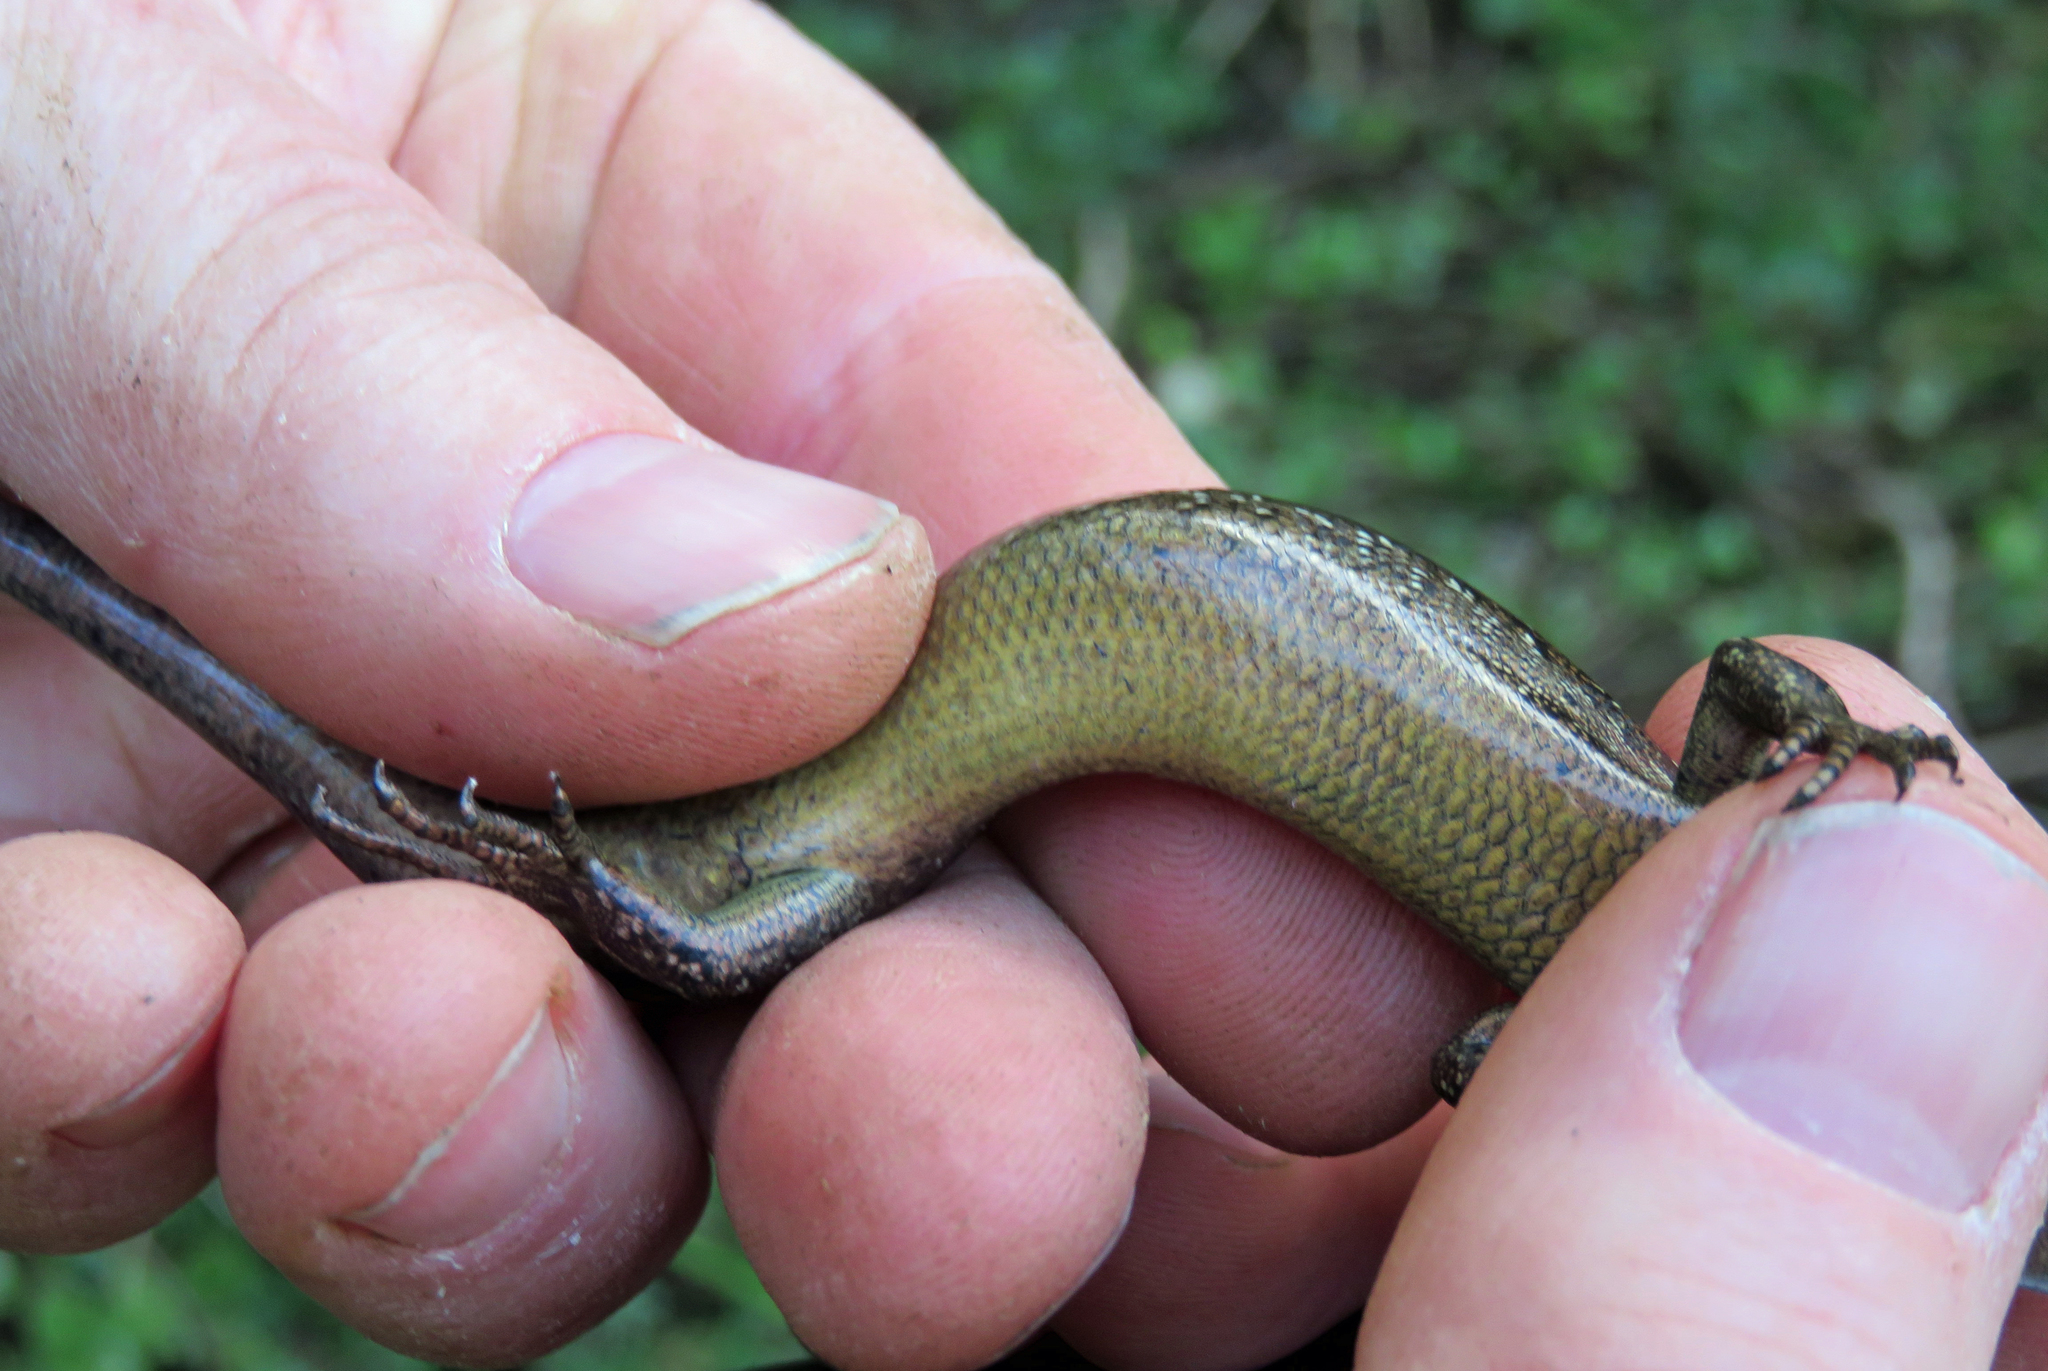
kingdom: Animalia
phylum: Chordata
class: Squamata
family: Scincidae
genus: Oligosoma
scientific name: Oligosoma nigriplantare
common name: Chathams skink
